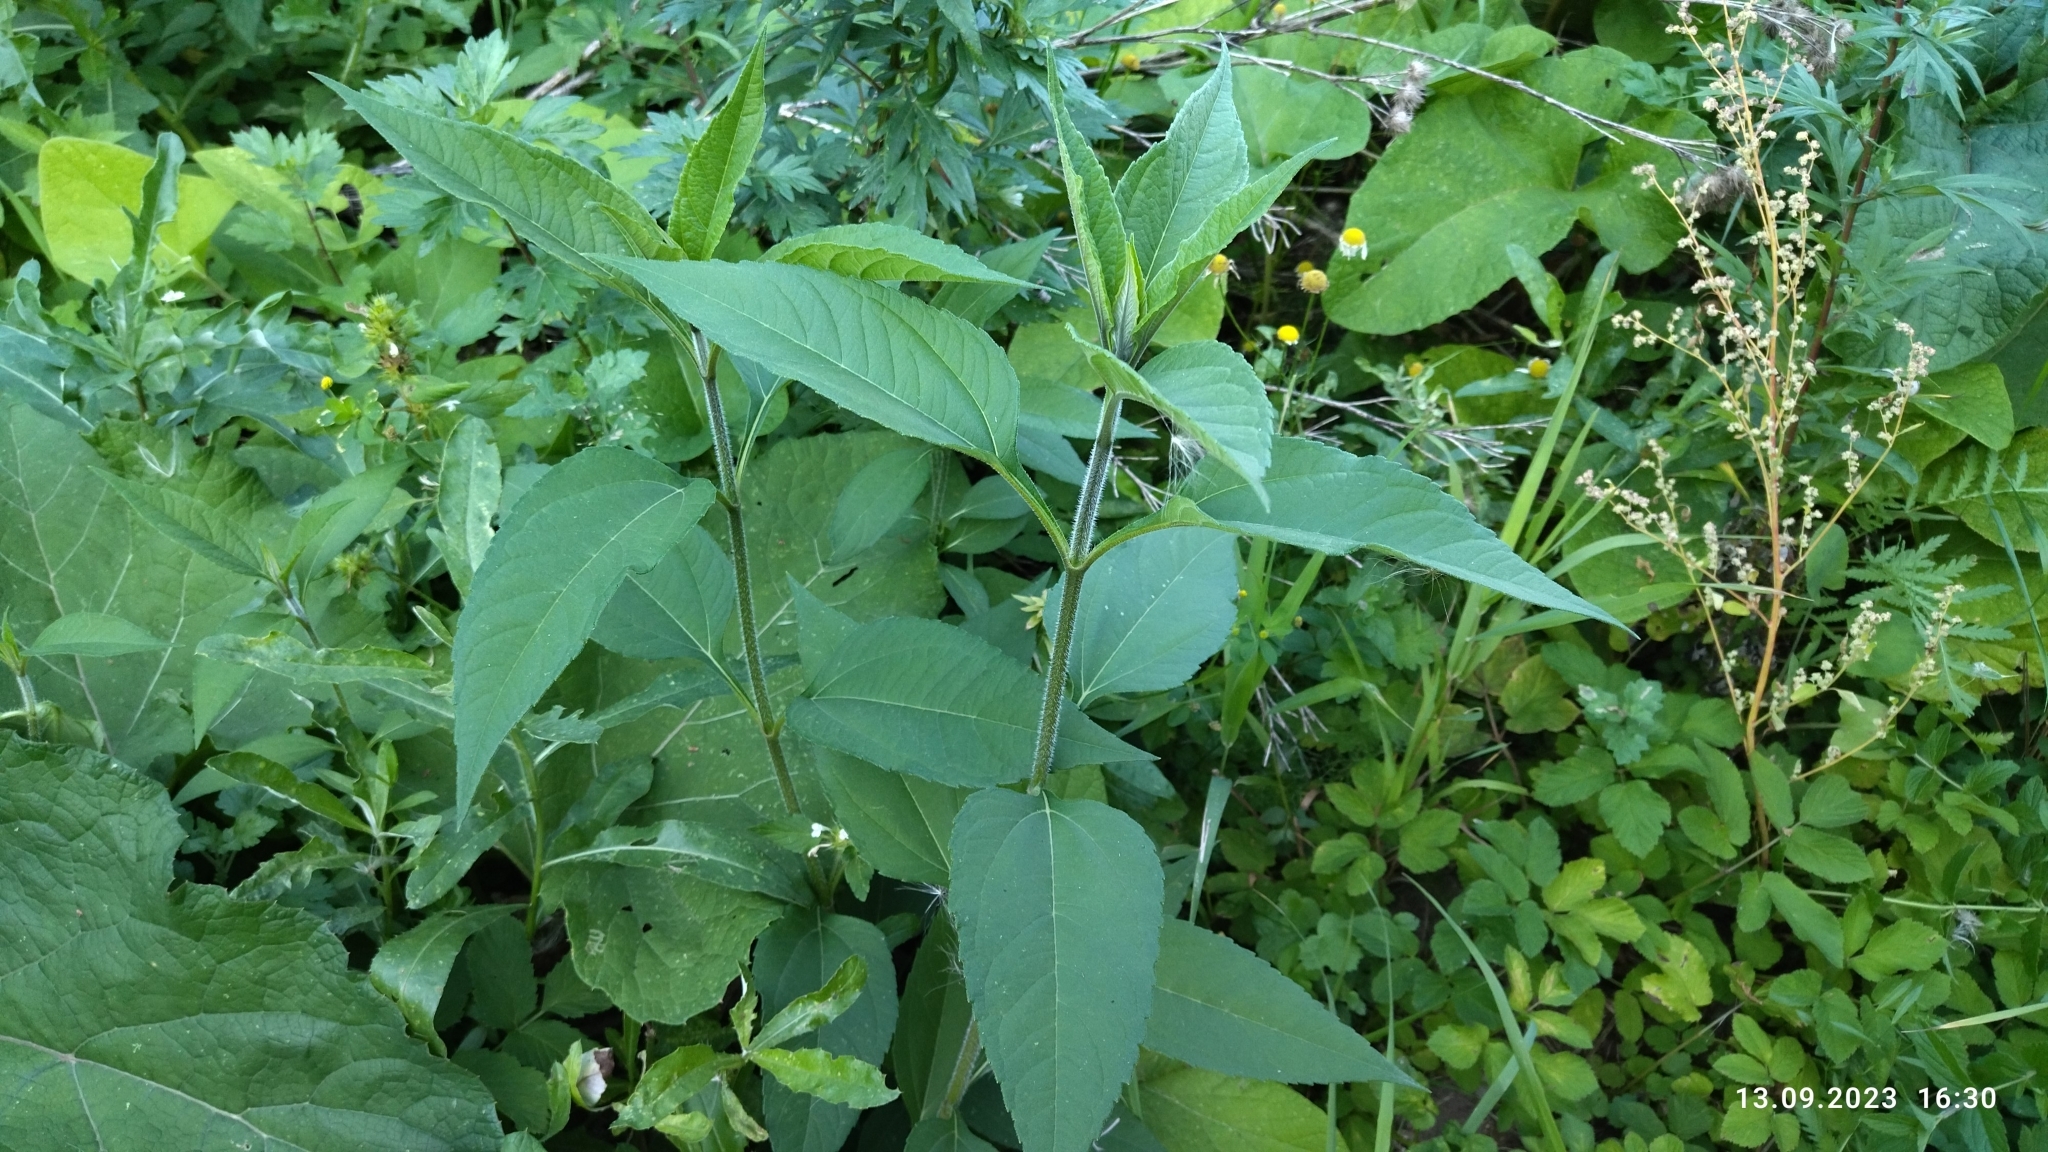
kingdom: Plantae
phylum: Tracheophyta
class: Magnoliopsida
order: Asterales
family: Asteraceae
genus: Helianthus
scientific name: Helianthus tuberosus
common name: Jerusalem artichoke
